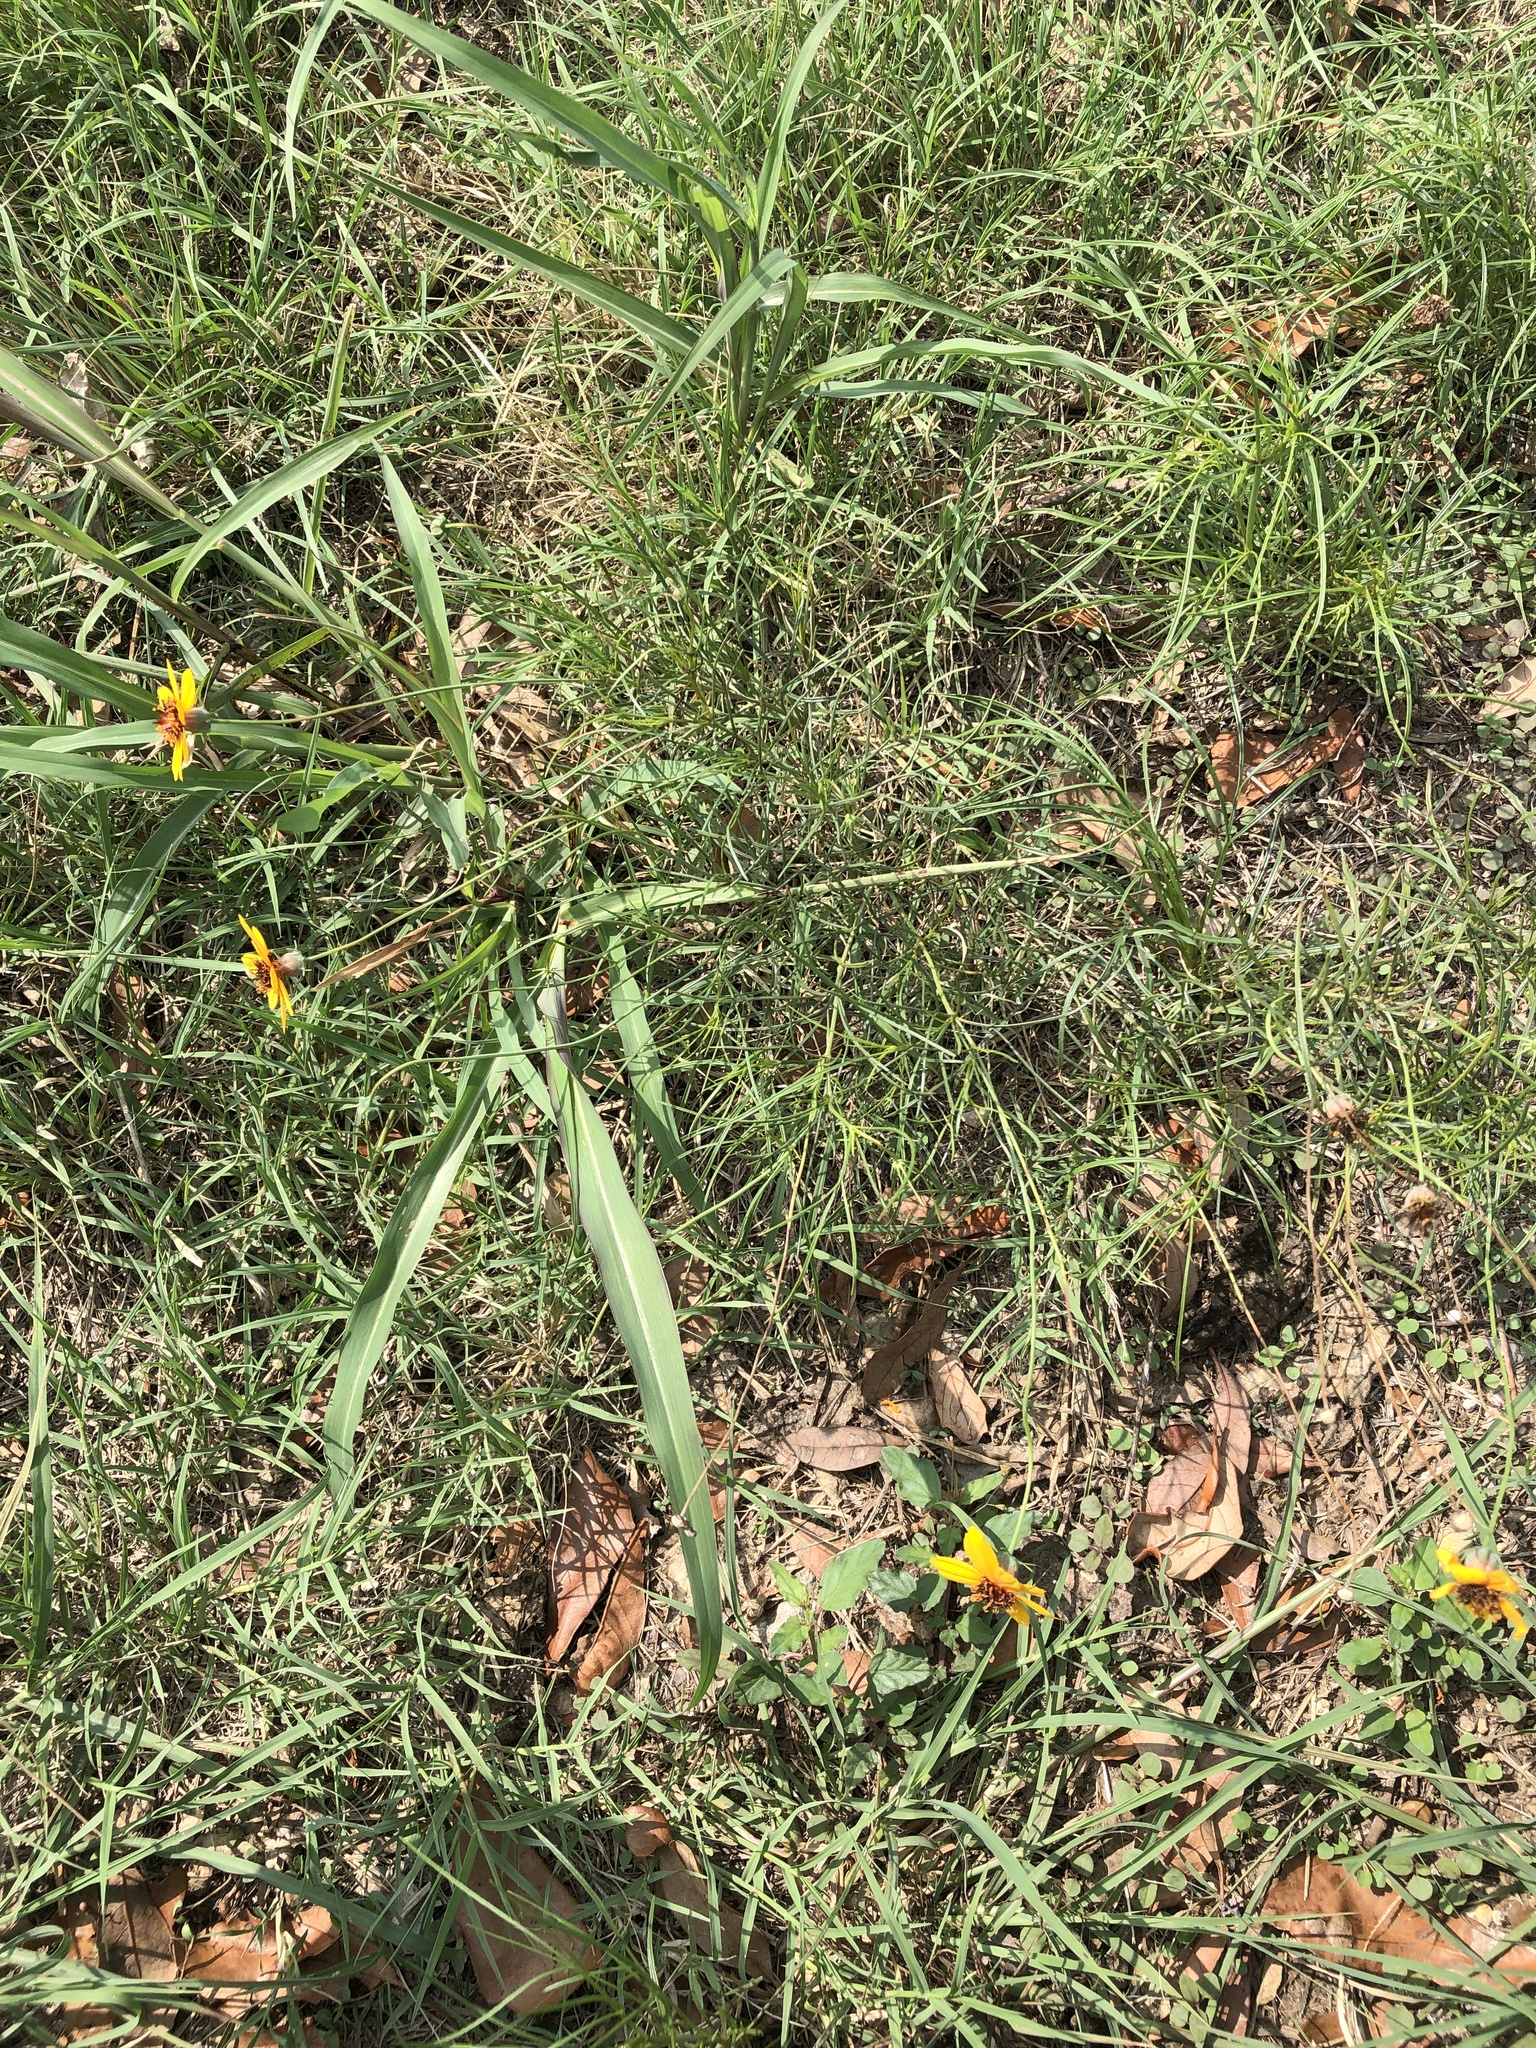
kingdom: Plantae
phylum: Tracheophyta
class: Magnoliopsida
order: Asterales
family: Asteraceae
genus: Thelesperma
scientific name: Thelesperma filifolium
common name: Stiff greenthread
